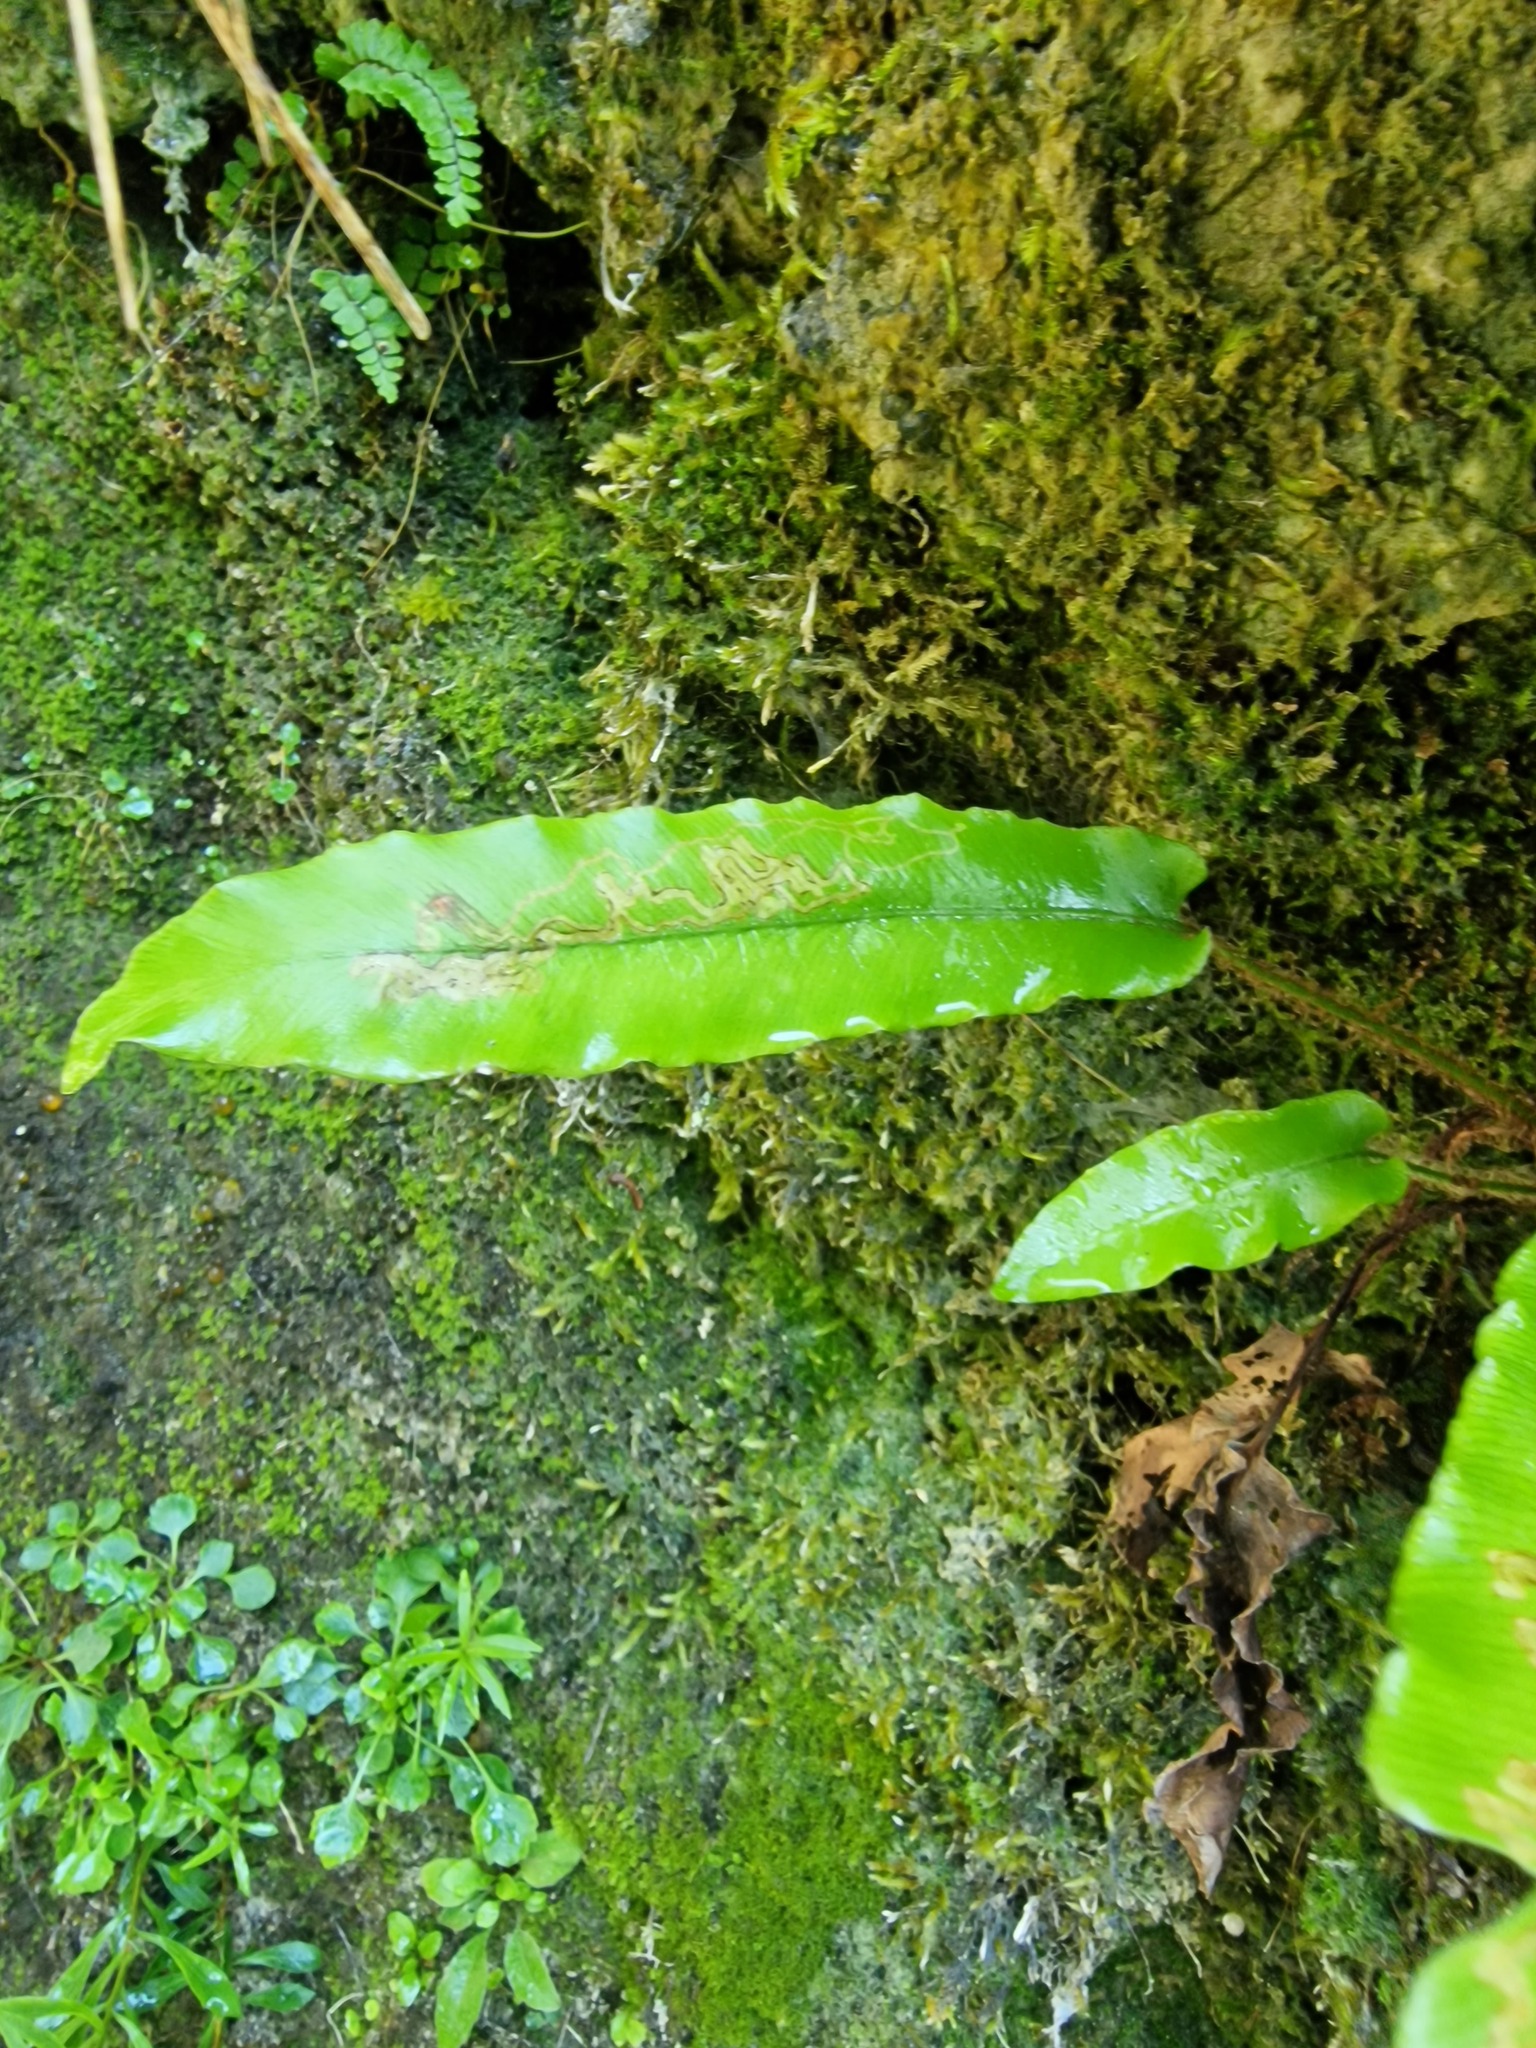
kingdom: Plantae
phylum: Tracheophyta
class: Polypodiopsida
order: Polypodiales
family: Aspleniaceae
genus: Asplenium
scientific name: Asplenium scolopendrium
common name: Hart's-tongue fern
